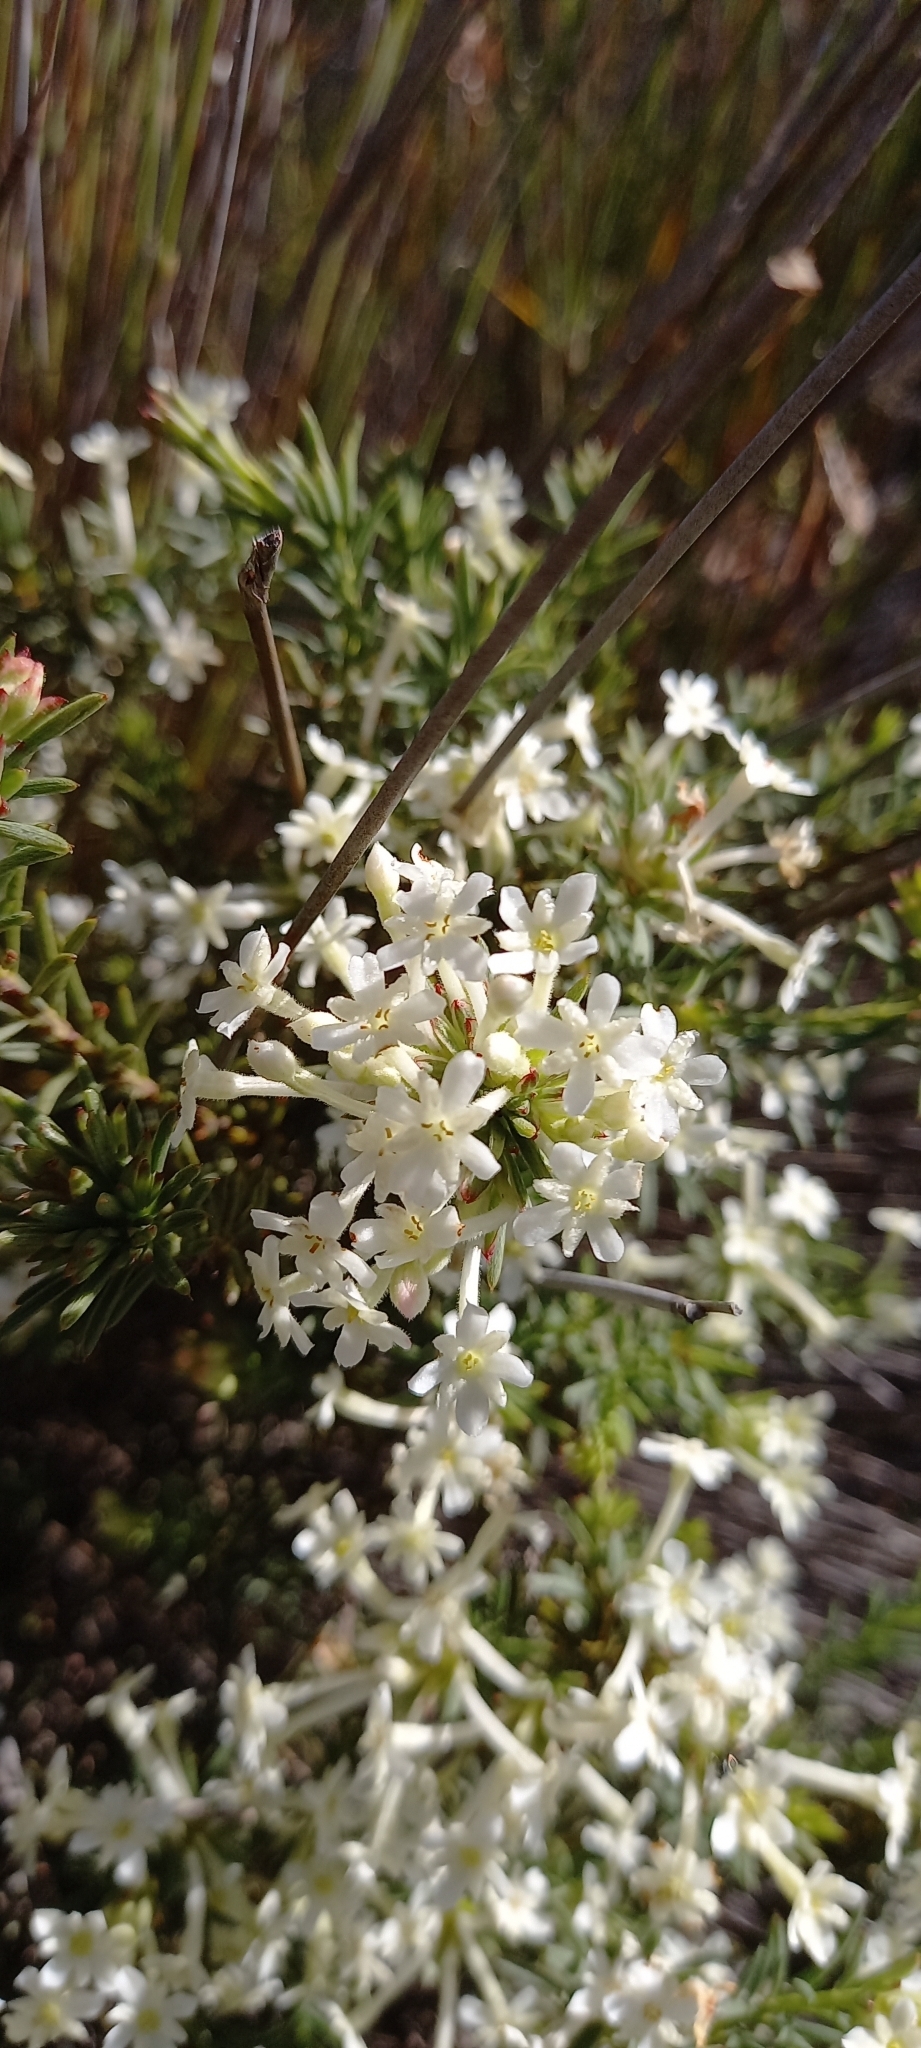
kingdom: Plantae
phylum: Tracheophyta
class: Magnoliopsida
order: Malvales
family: Thymelaeaceae
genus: Gnidia
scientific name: Gnidia pinifolia
